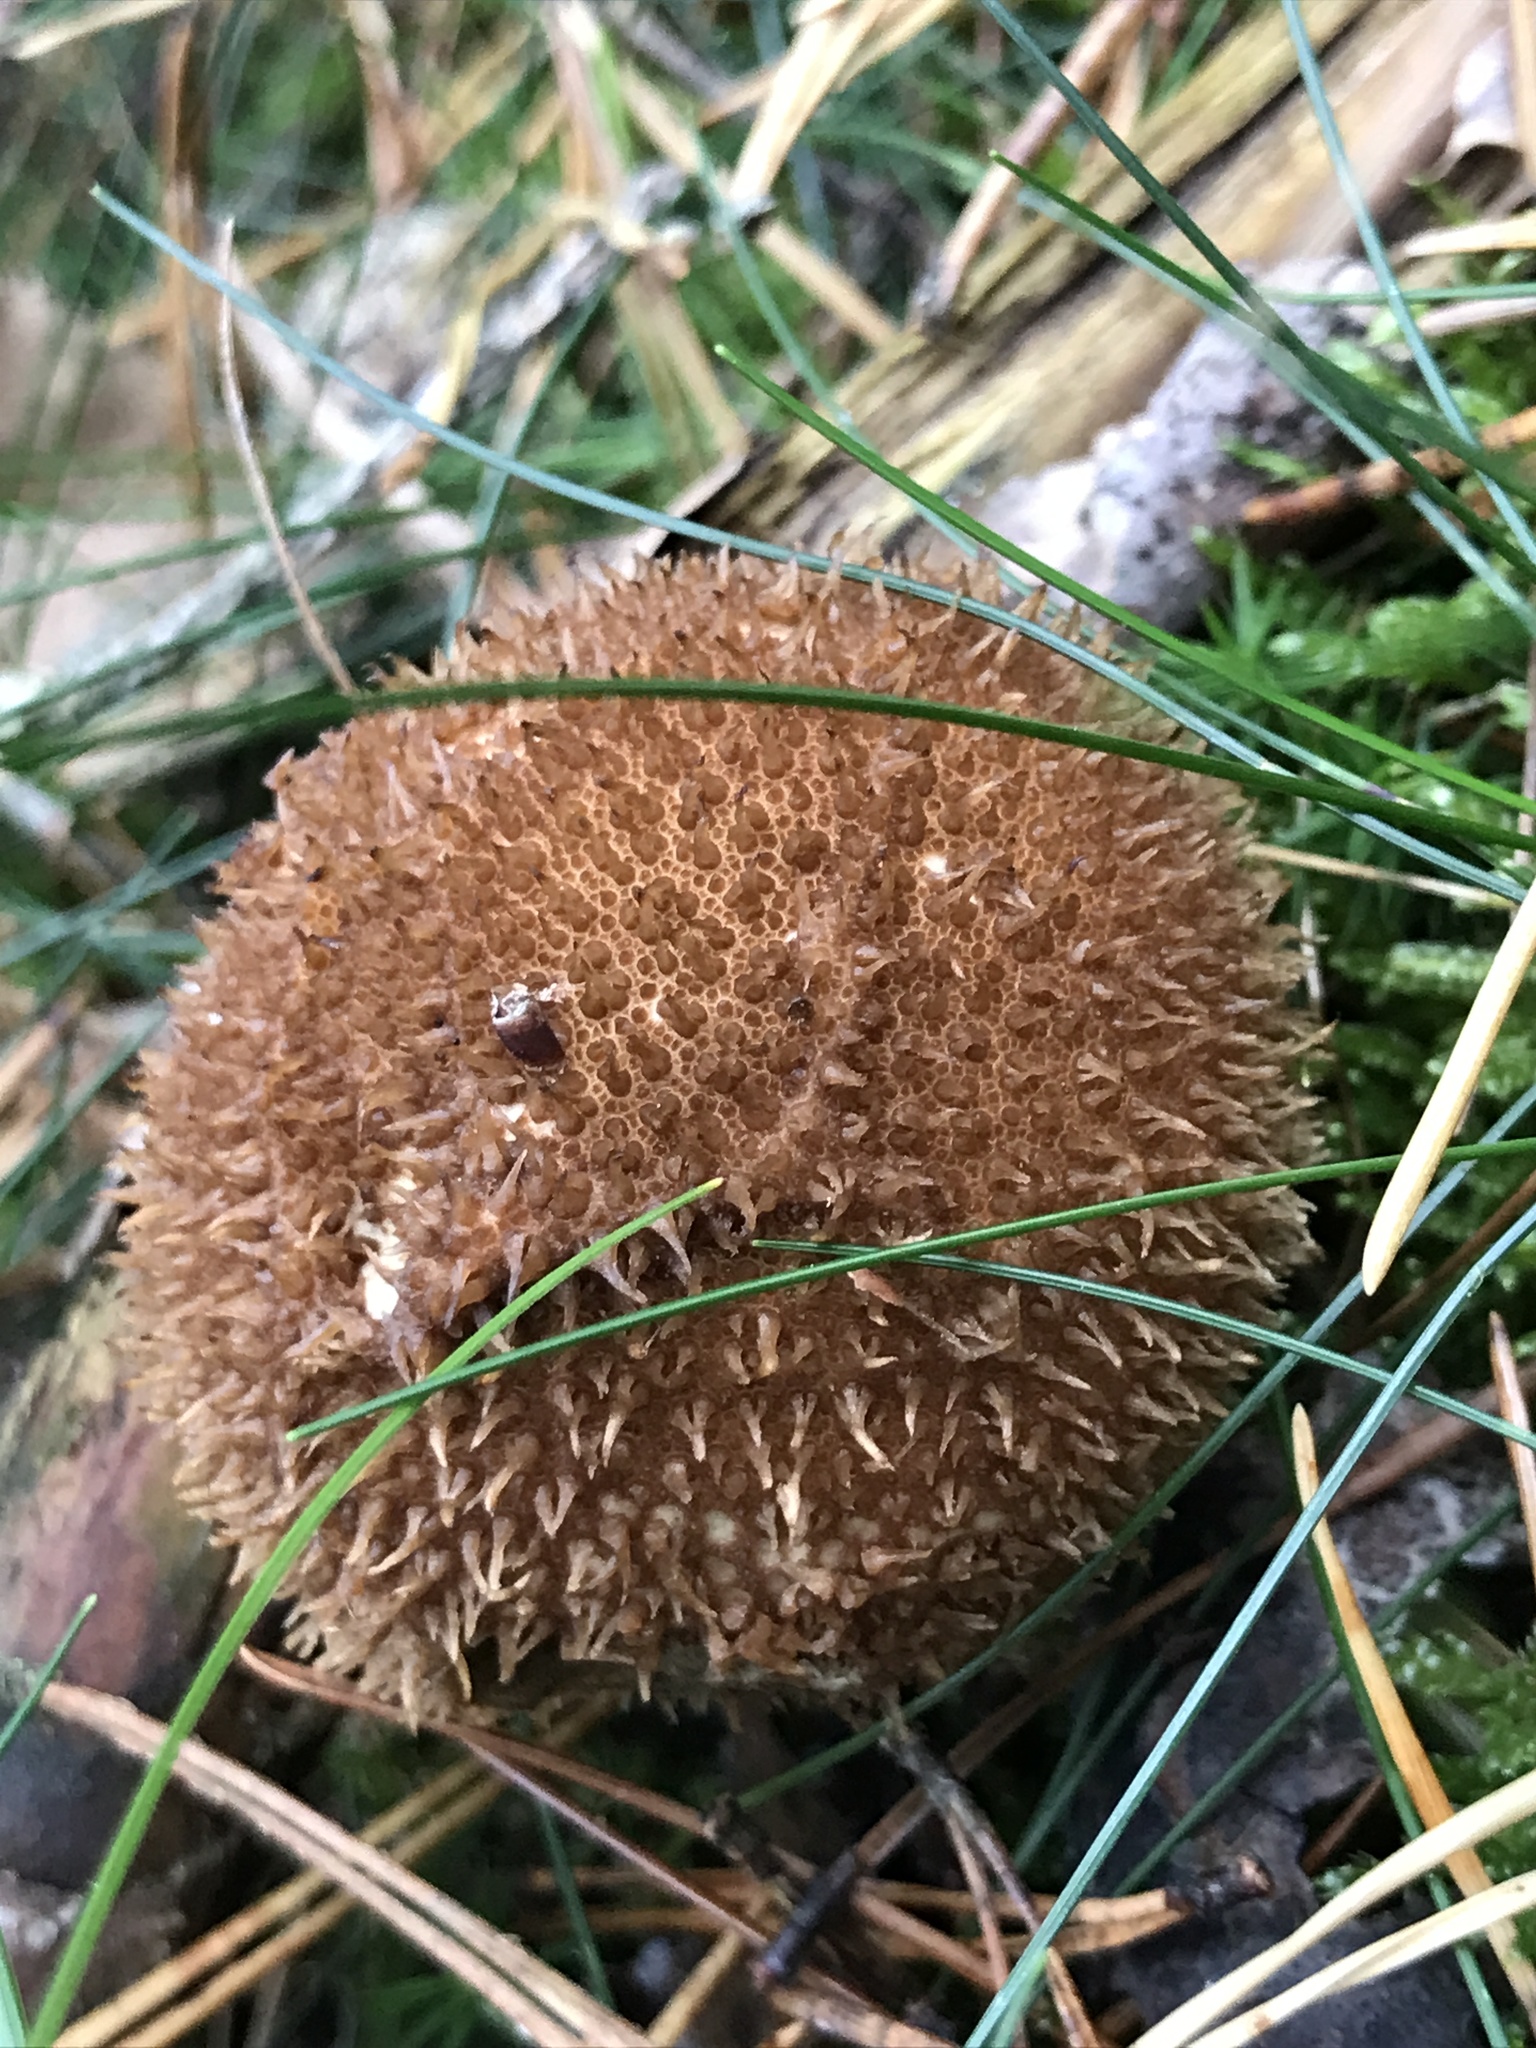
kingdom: Fungi
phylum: Basidiomycota
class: Agaricomycetes
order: Agaricales
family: Lycoperdaceae
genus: Lycoperdon
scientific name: Lycoperdon echinatum
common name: Hedgehog puffball
